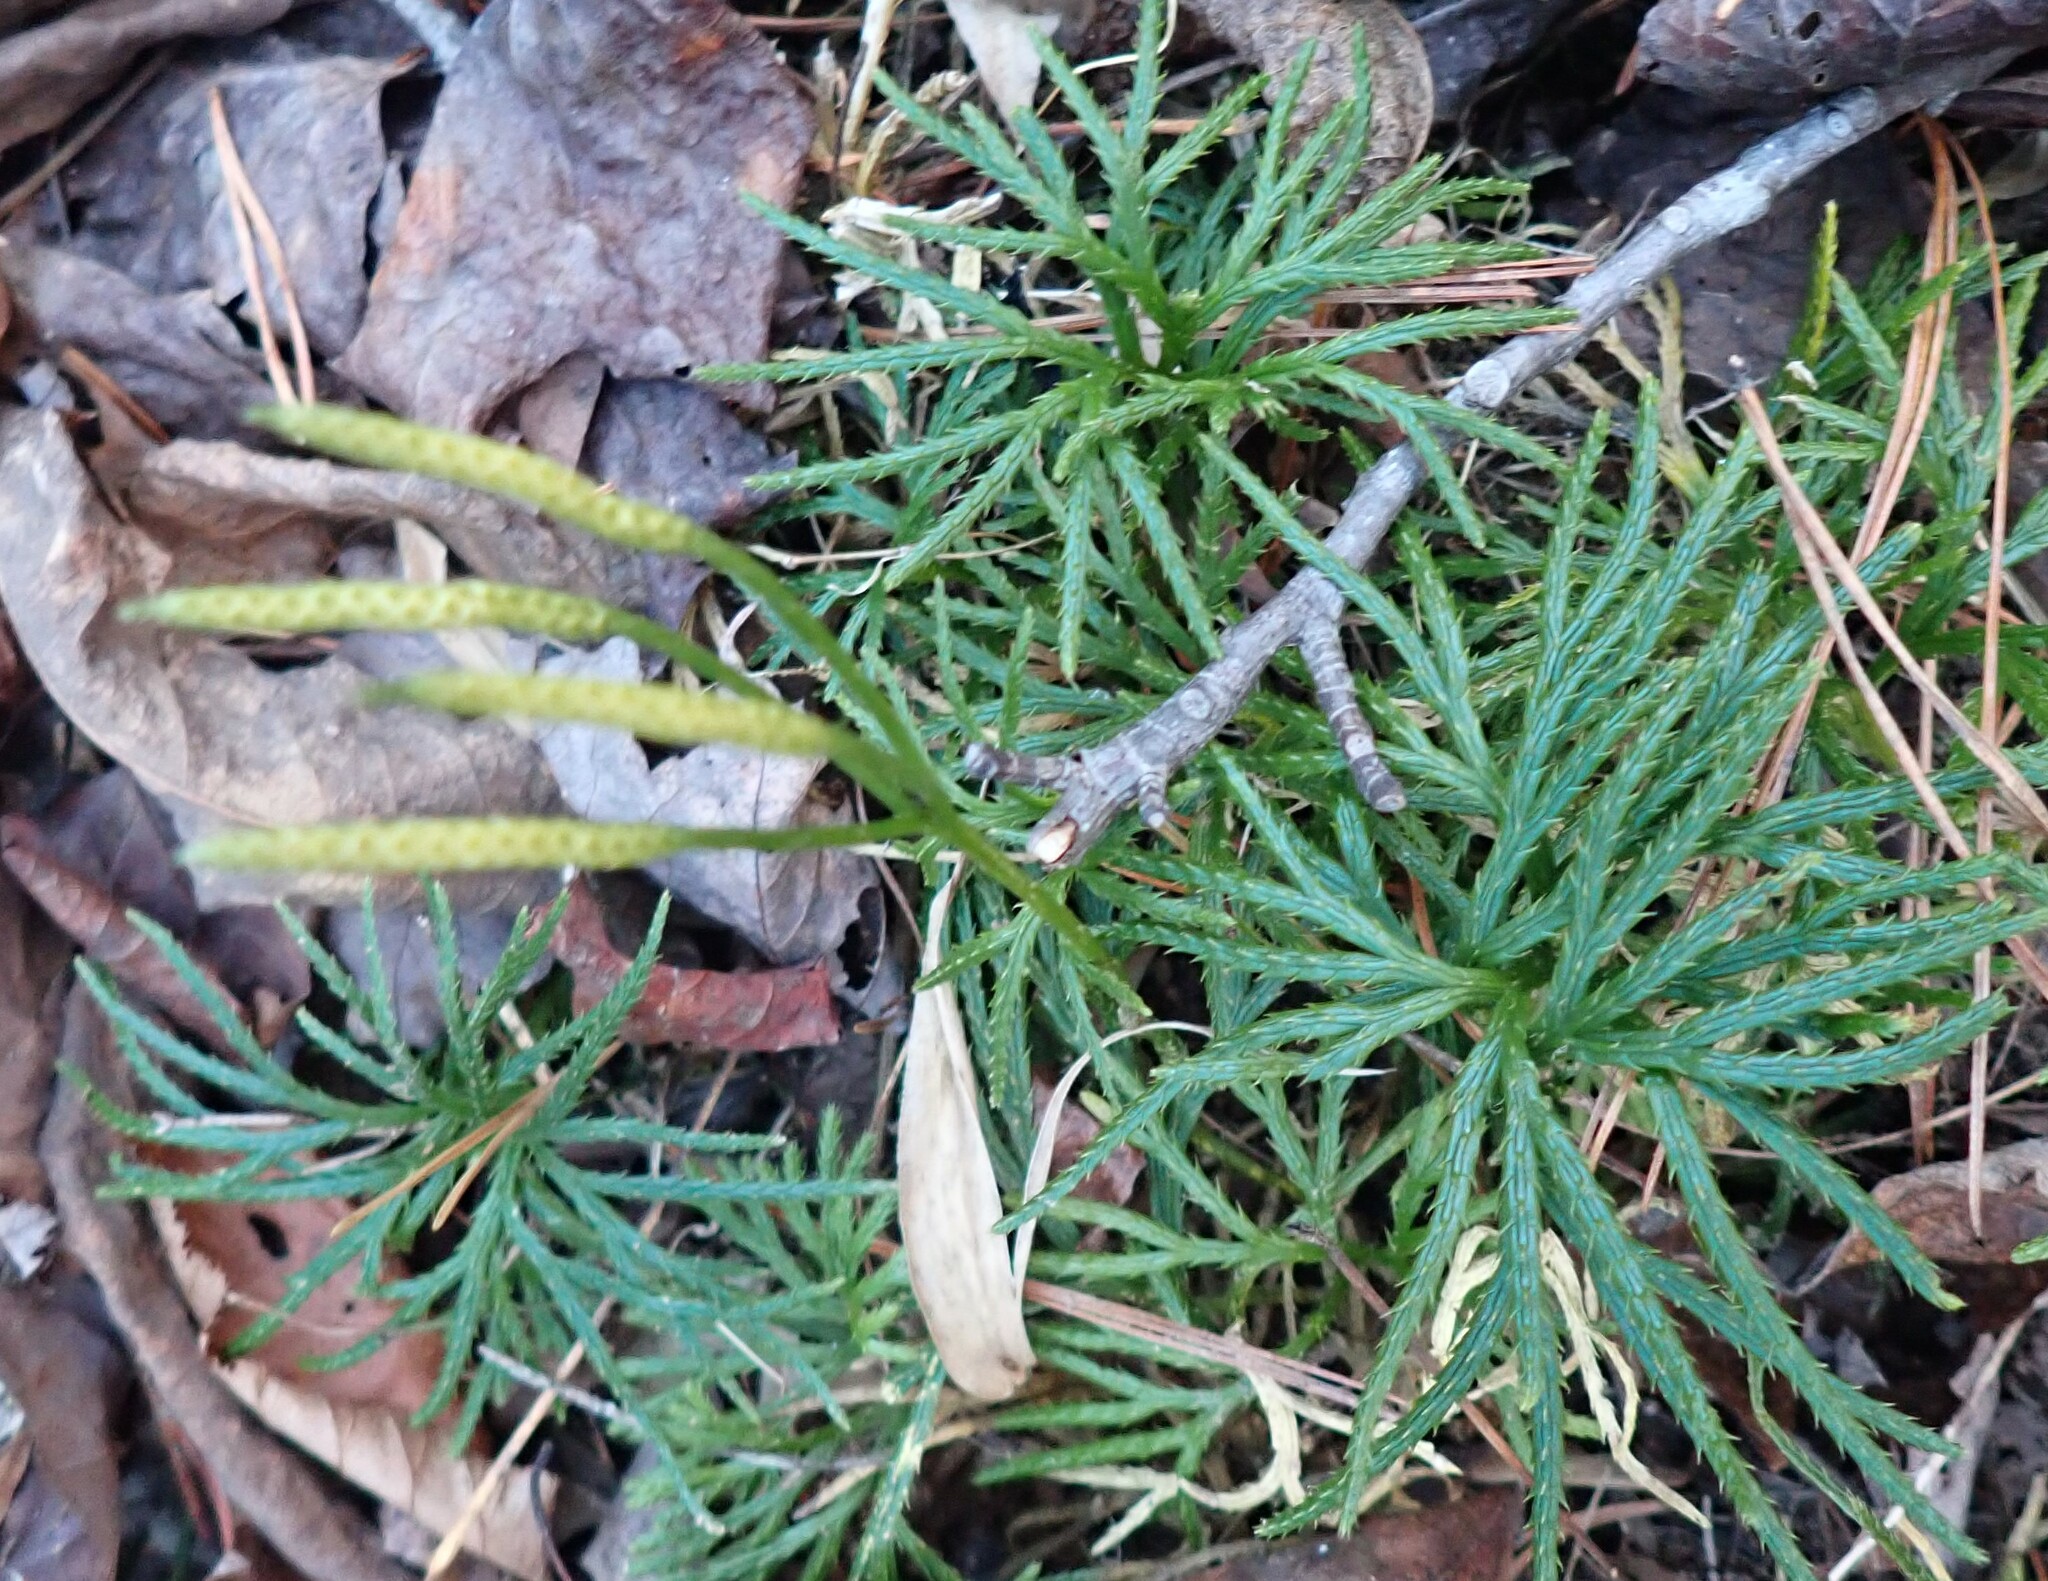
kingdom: Plantae
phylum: Tracheophyta
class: Lycopodiopsida
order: Lycopodiales
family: Lycopodiaceae
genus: Diphasiastrum
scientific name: Diphasiastrum digitatum
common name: Southern running-pine
